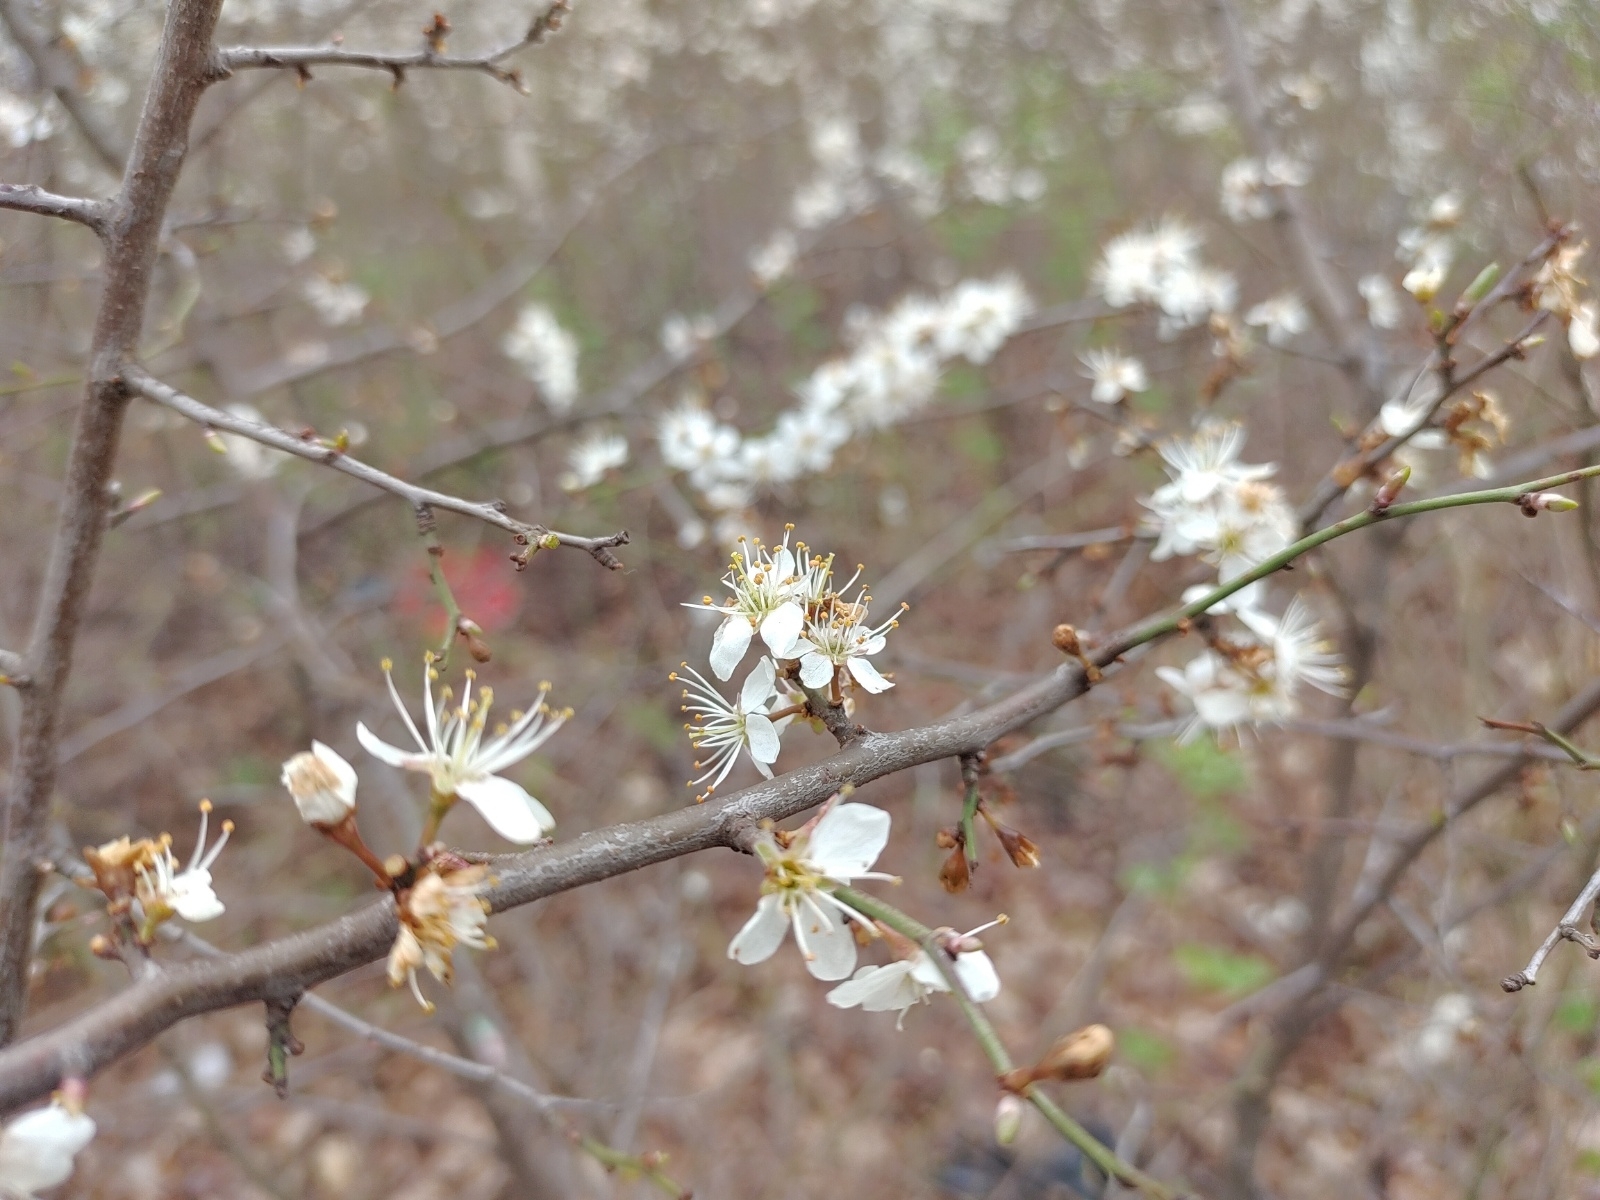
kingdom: Plantae
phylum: Tracheophyta
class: Magnoliopsida
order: Rosales
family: Rosaceae
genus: Prunus
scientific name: Prunus spinosa
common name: Blackthorn
